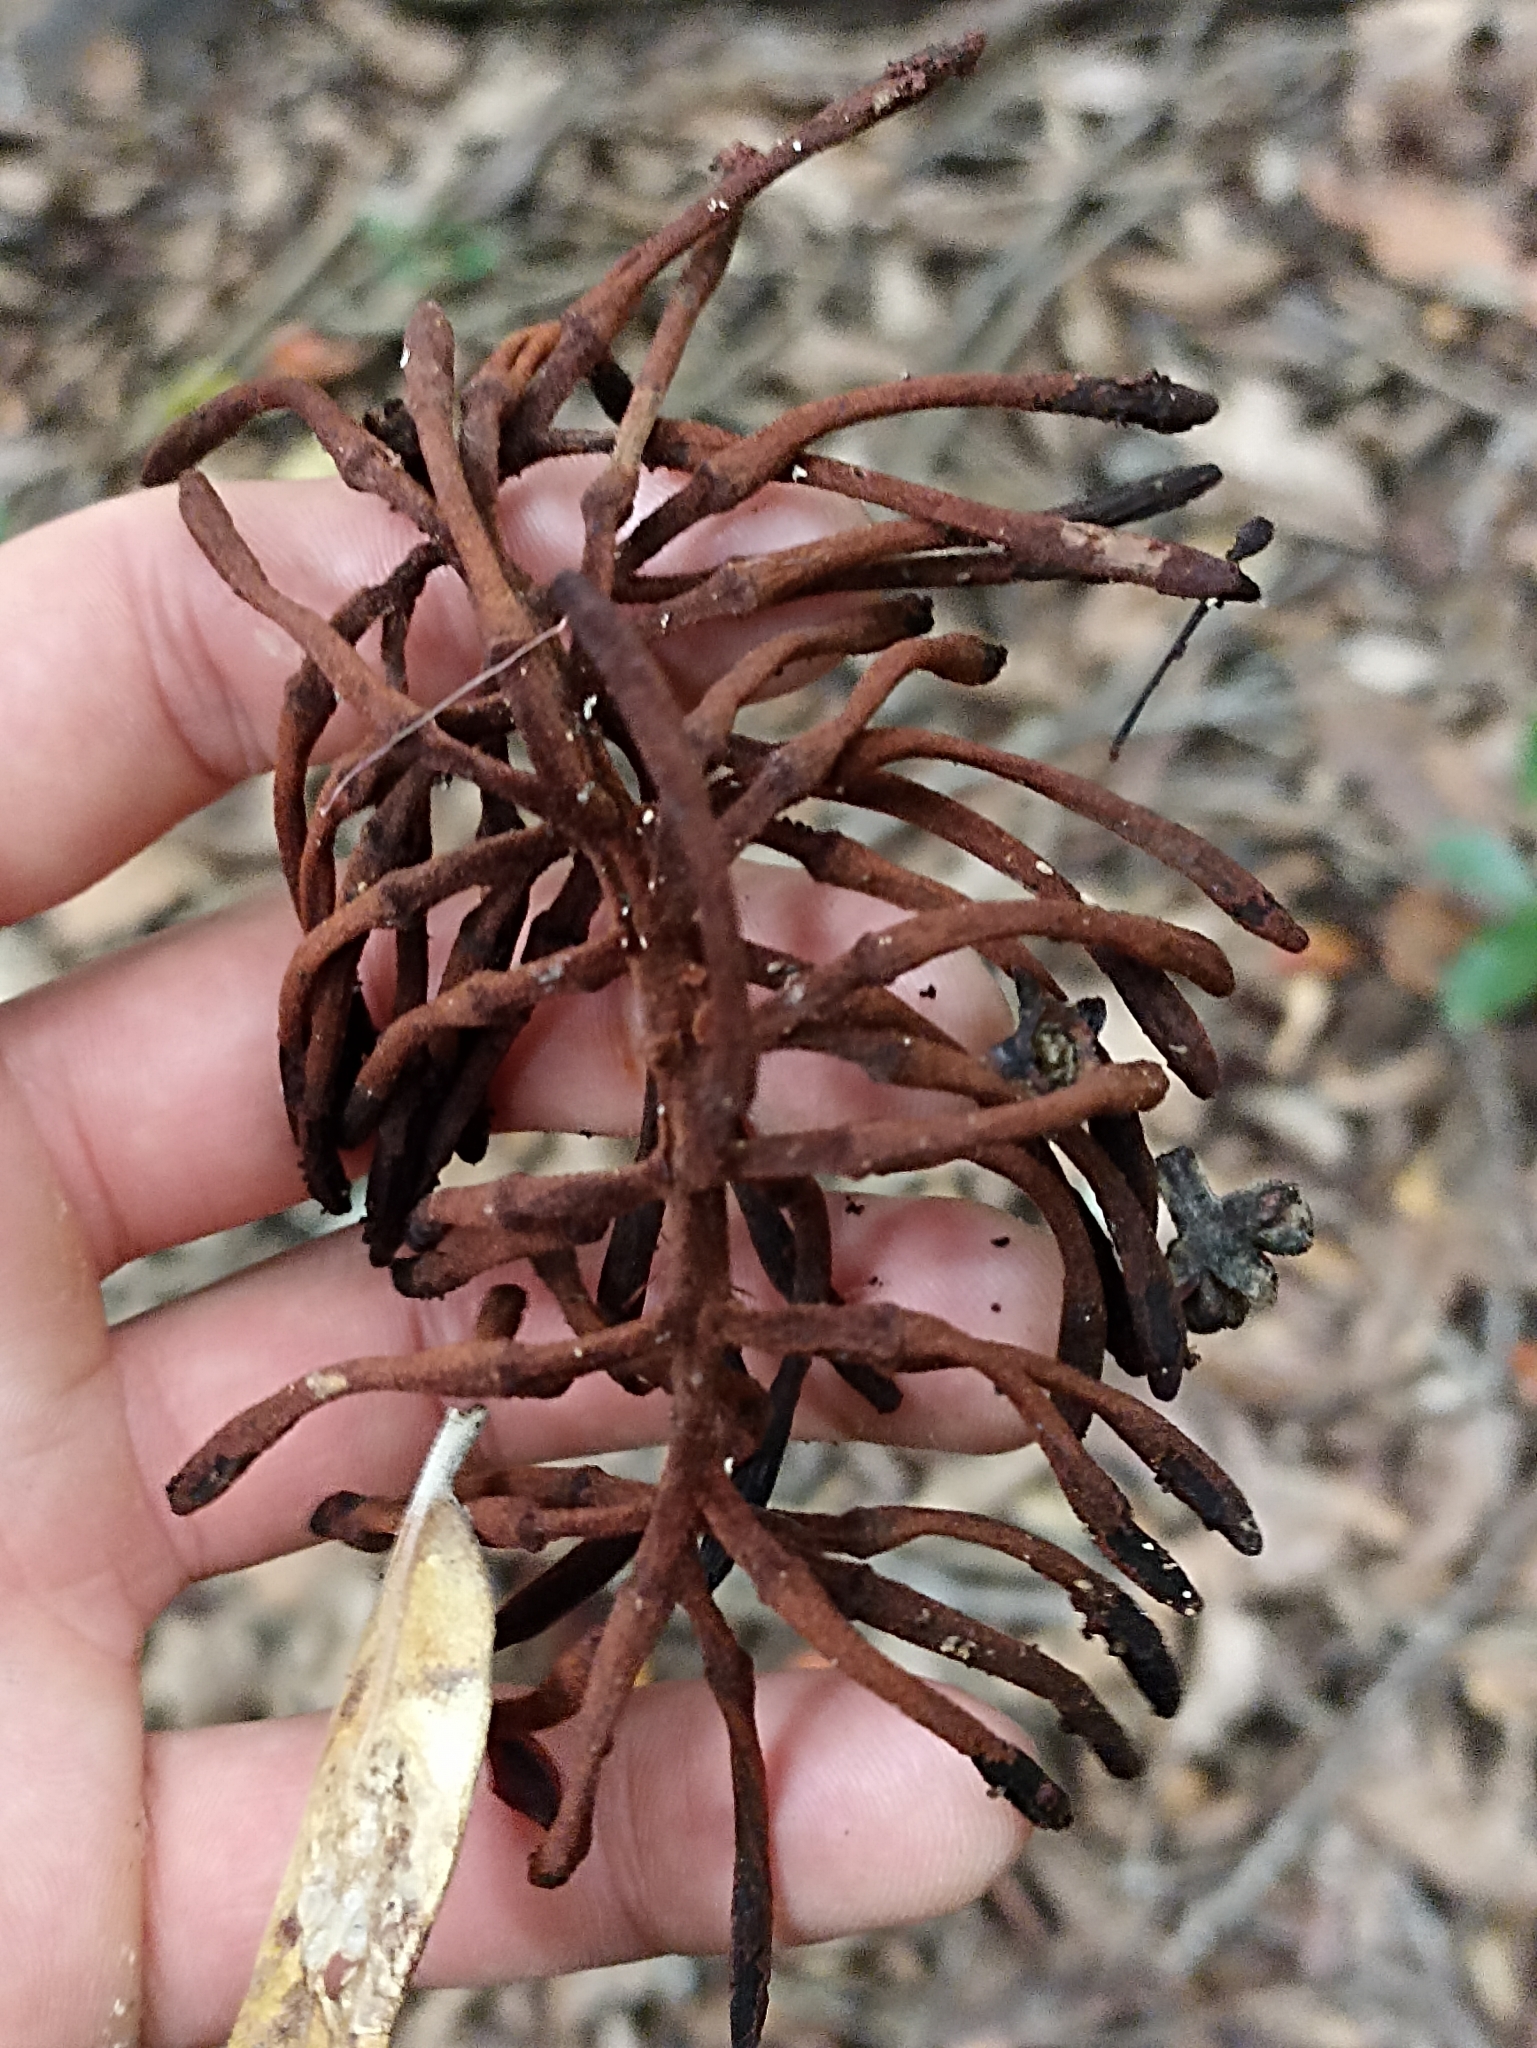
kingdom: Plantae
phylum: Tracheophyta
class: Magnoliopsida
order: Proteales
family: Proteaceae
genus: Knightia
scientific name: Knightia excelsa
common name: New zealand-honeysuckle
